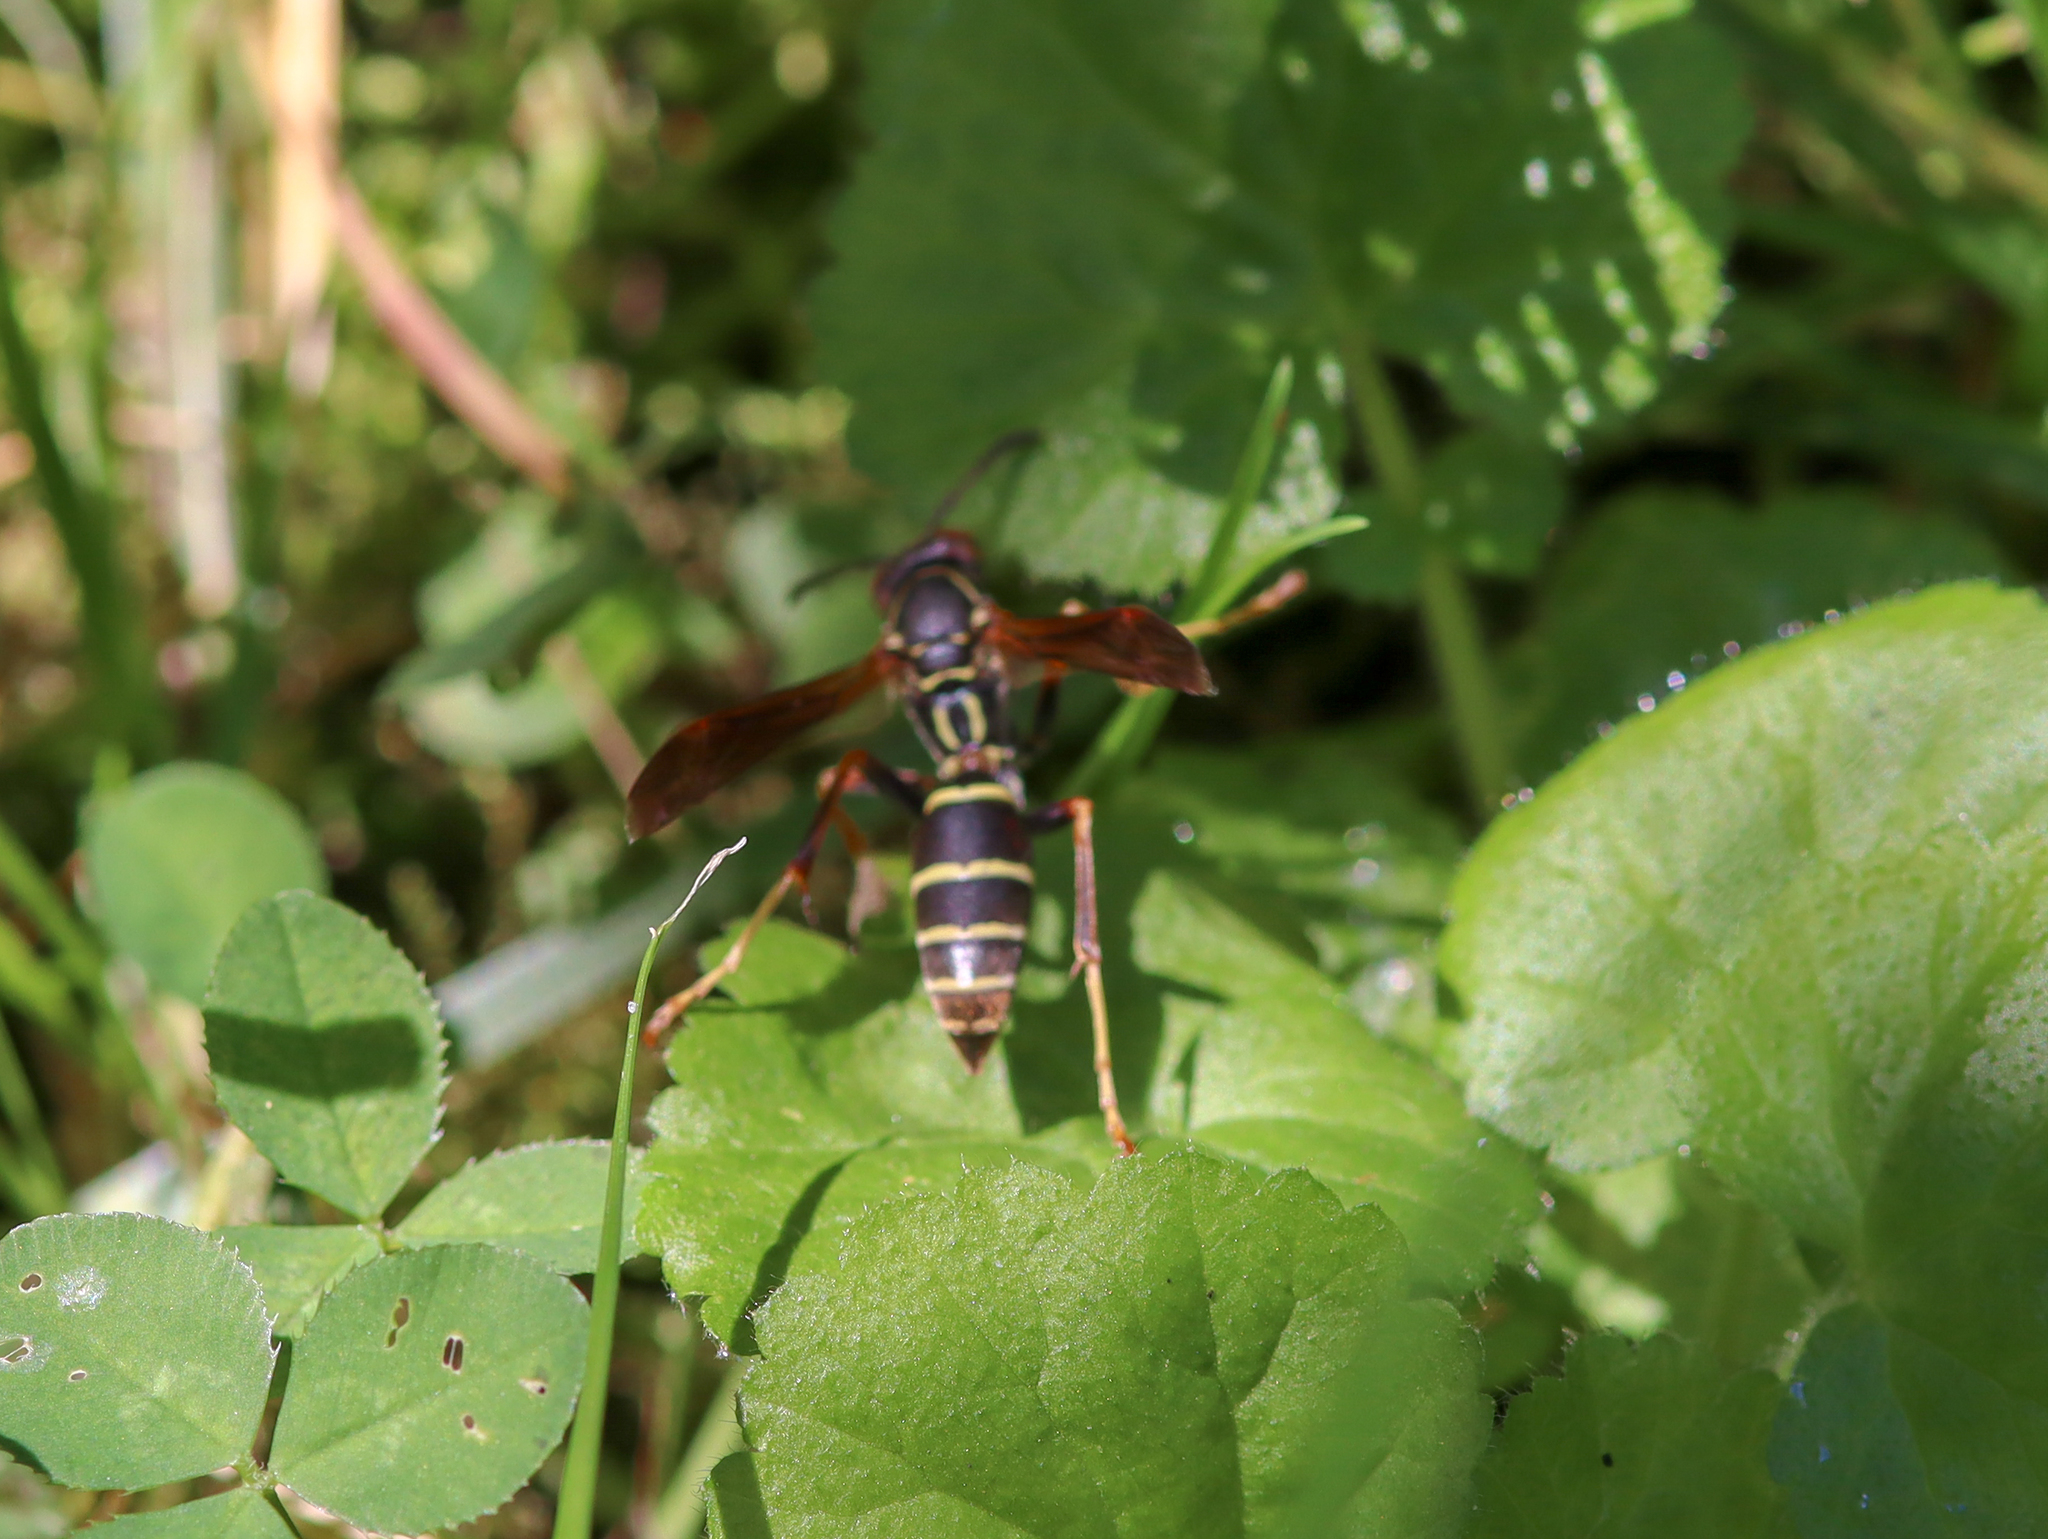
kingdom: Animalia
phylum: Arthropoda
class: Insecta
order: Hymenoptera
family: Eumenidae
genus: Polistes
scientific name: Polistes fuscatus
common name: Dark paper wasp
